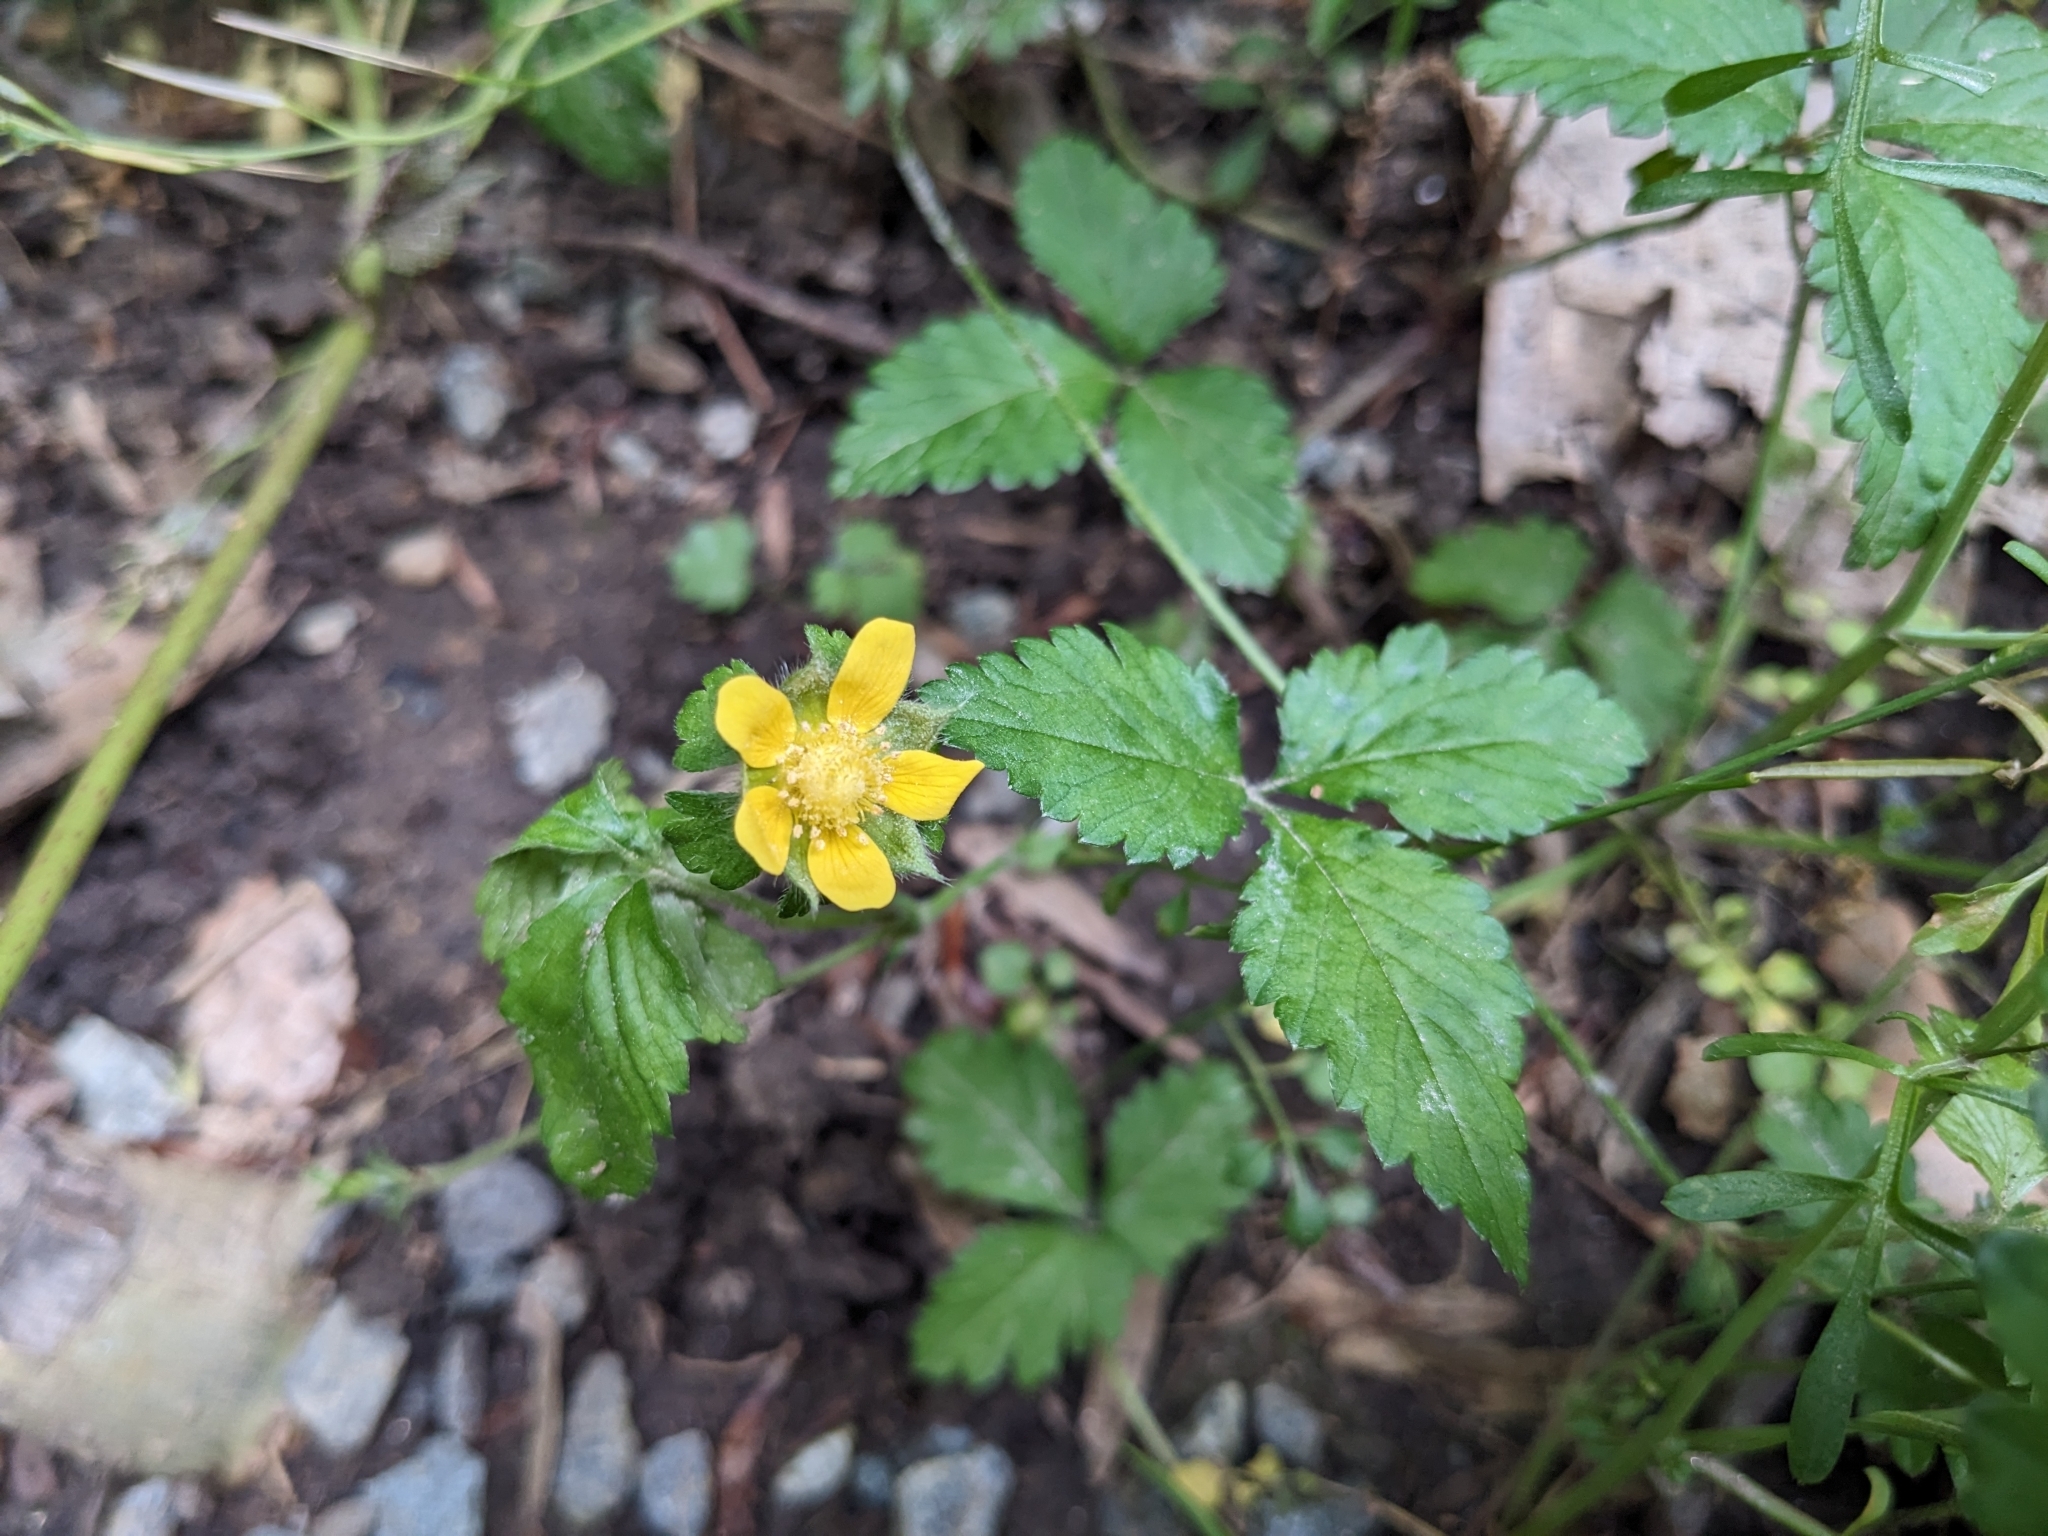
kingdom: Plantae
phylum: Tracheophyta
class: Magnoliopsida
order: Rosales
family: Rosaceae
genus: Potentilla
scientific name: Potentilla indica
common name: Yellow-flowered strawberry
